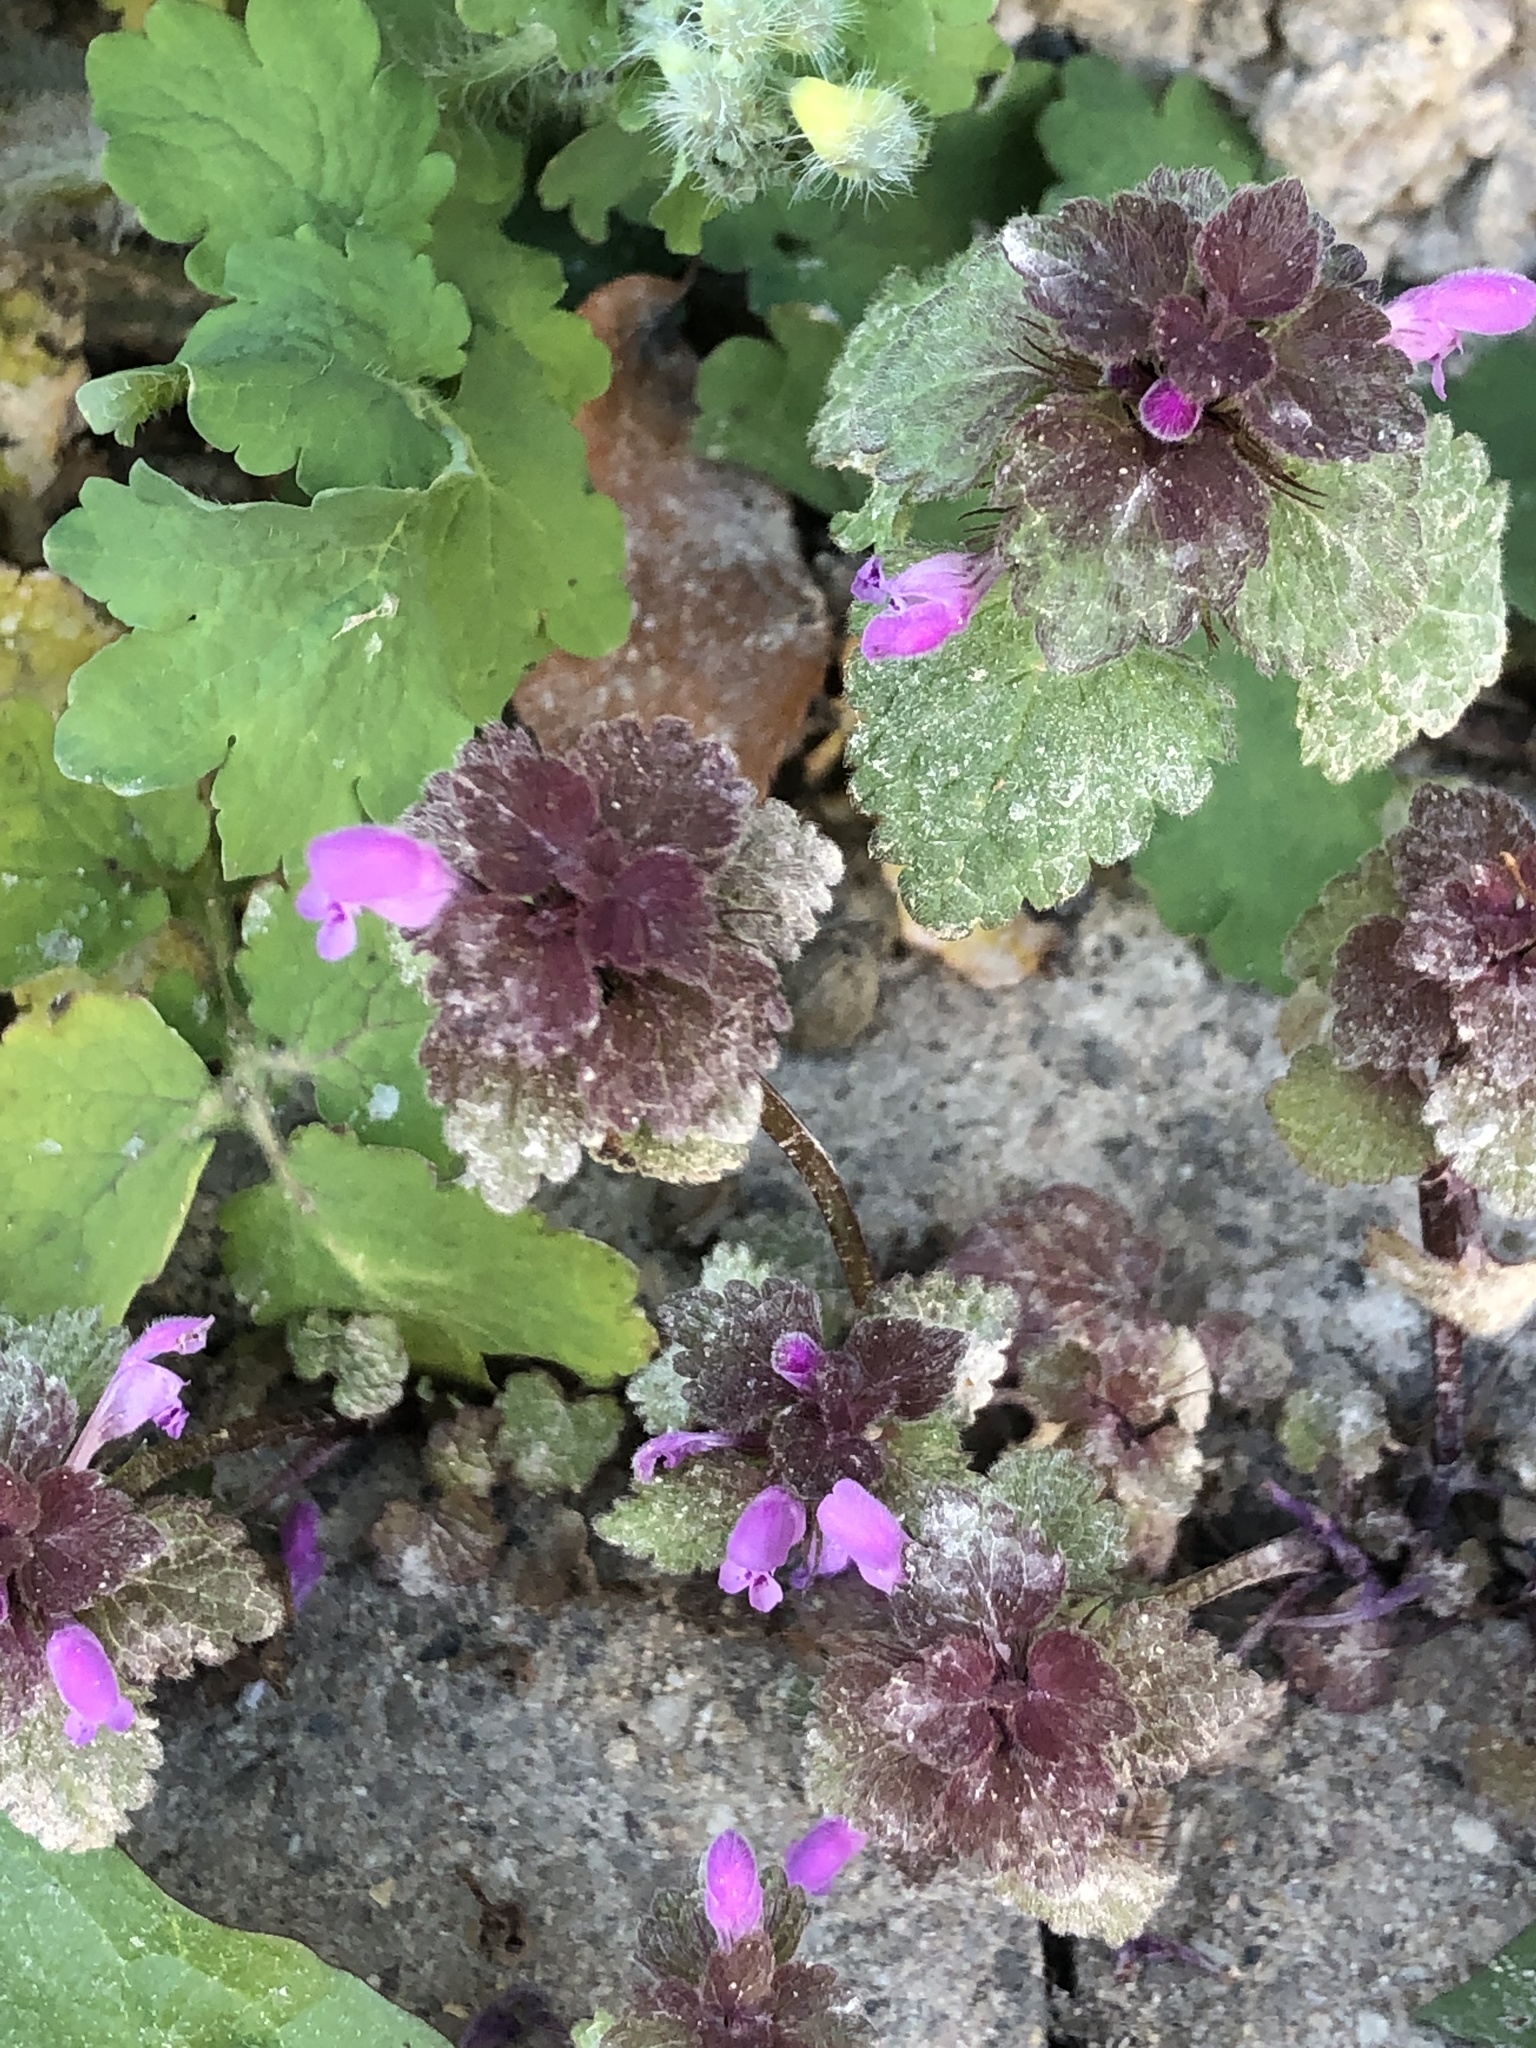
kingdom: Plantae
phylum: Tracheophyta
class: Magnoliopsida
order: Lamiales
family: Lamiaceae
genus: Lamium
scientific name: Lamium purpureum
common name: Red dead-nettle
